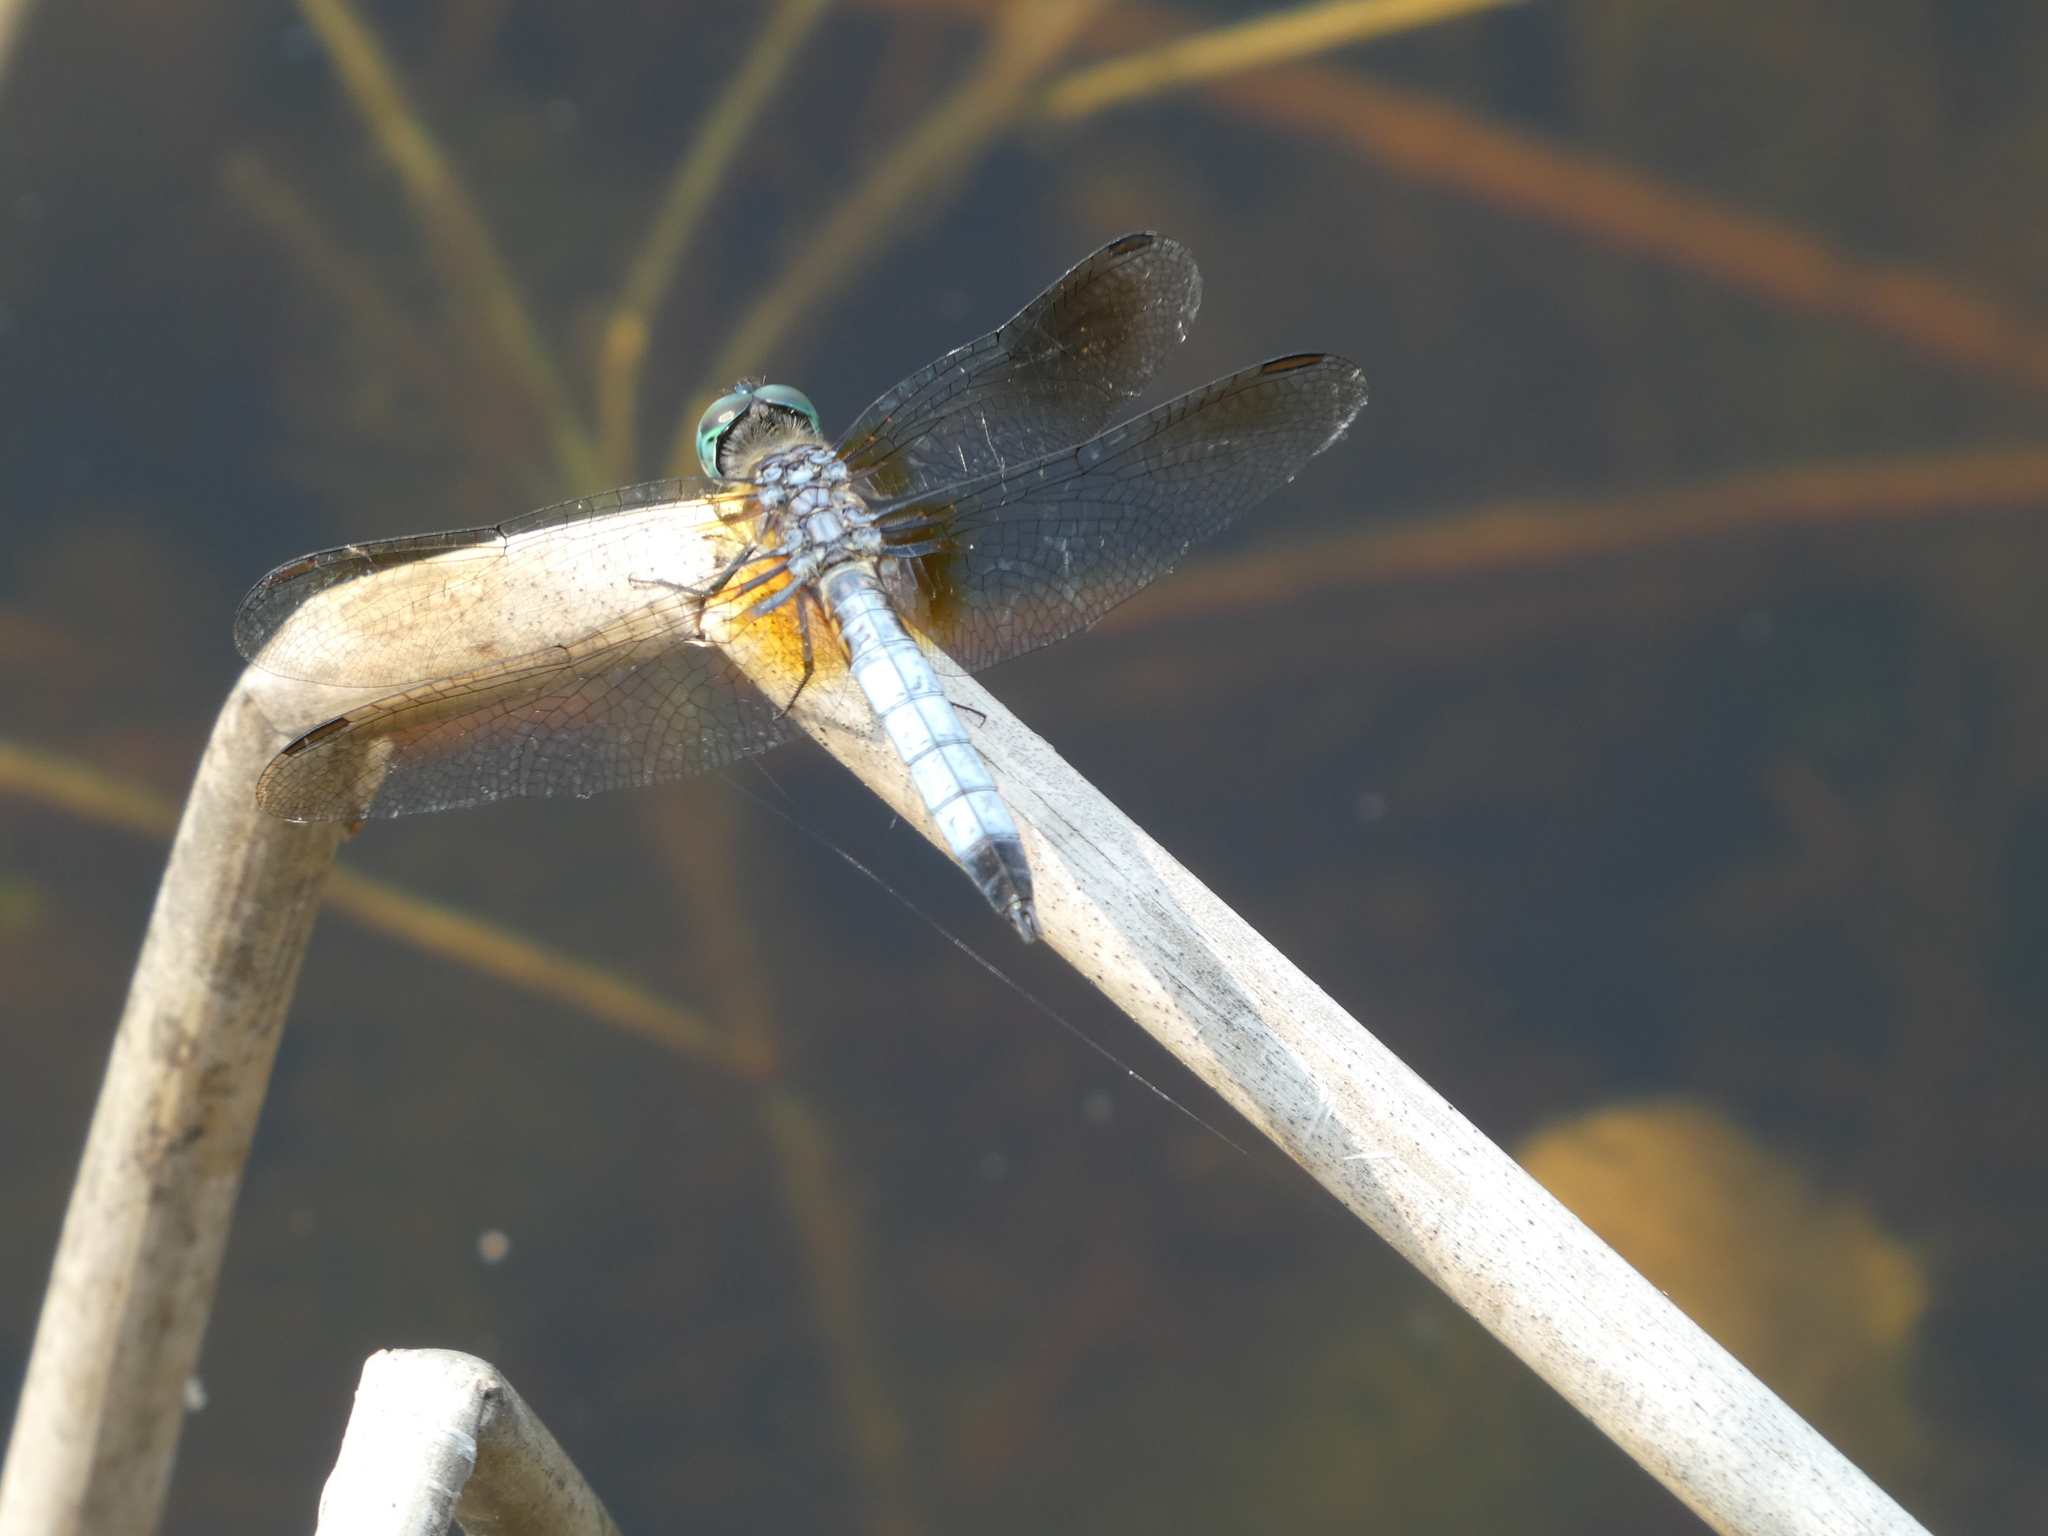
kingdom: Animalia
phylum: Arthropoda
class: Insecta
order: Odonata
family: Libellulidae
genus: Pachydiplax
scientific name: Pachydiplax longipennis
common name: Blue dasher
